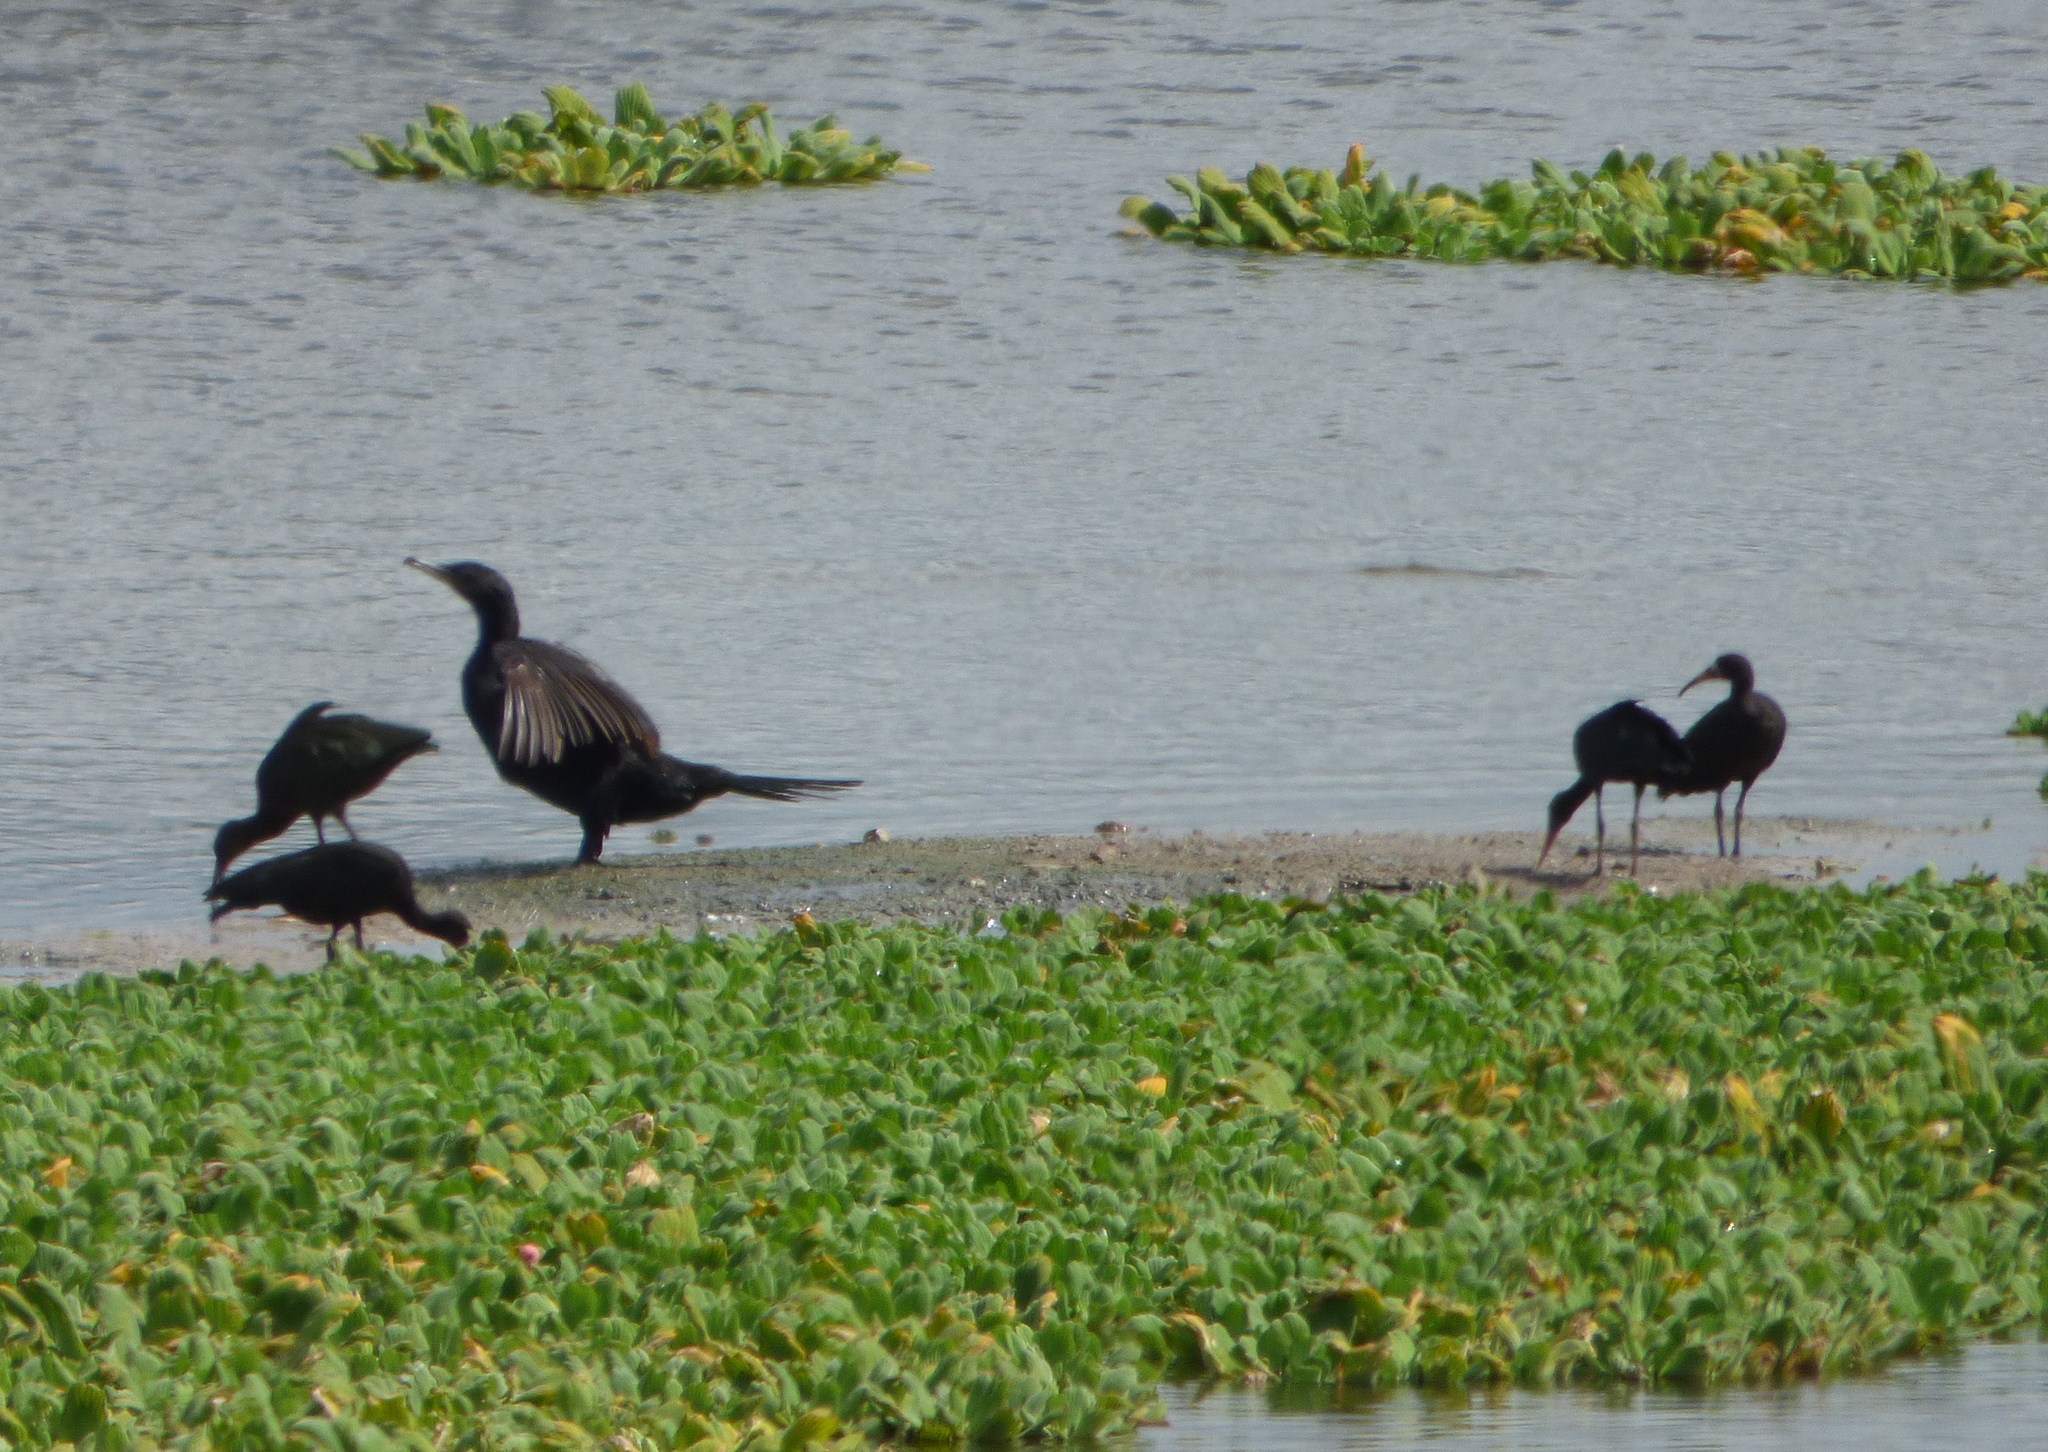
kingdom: Animalia
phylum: Chordata
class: Aves
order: Suliformes
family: Phalacrocoracidae
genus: Phalacrocorax
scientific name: Phalacrocorax brasilianus
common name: Neotropic cormorant
